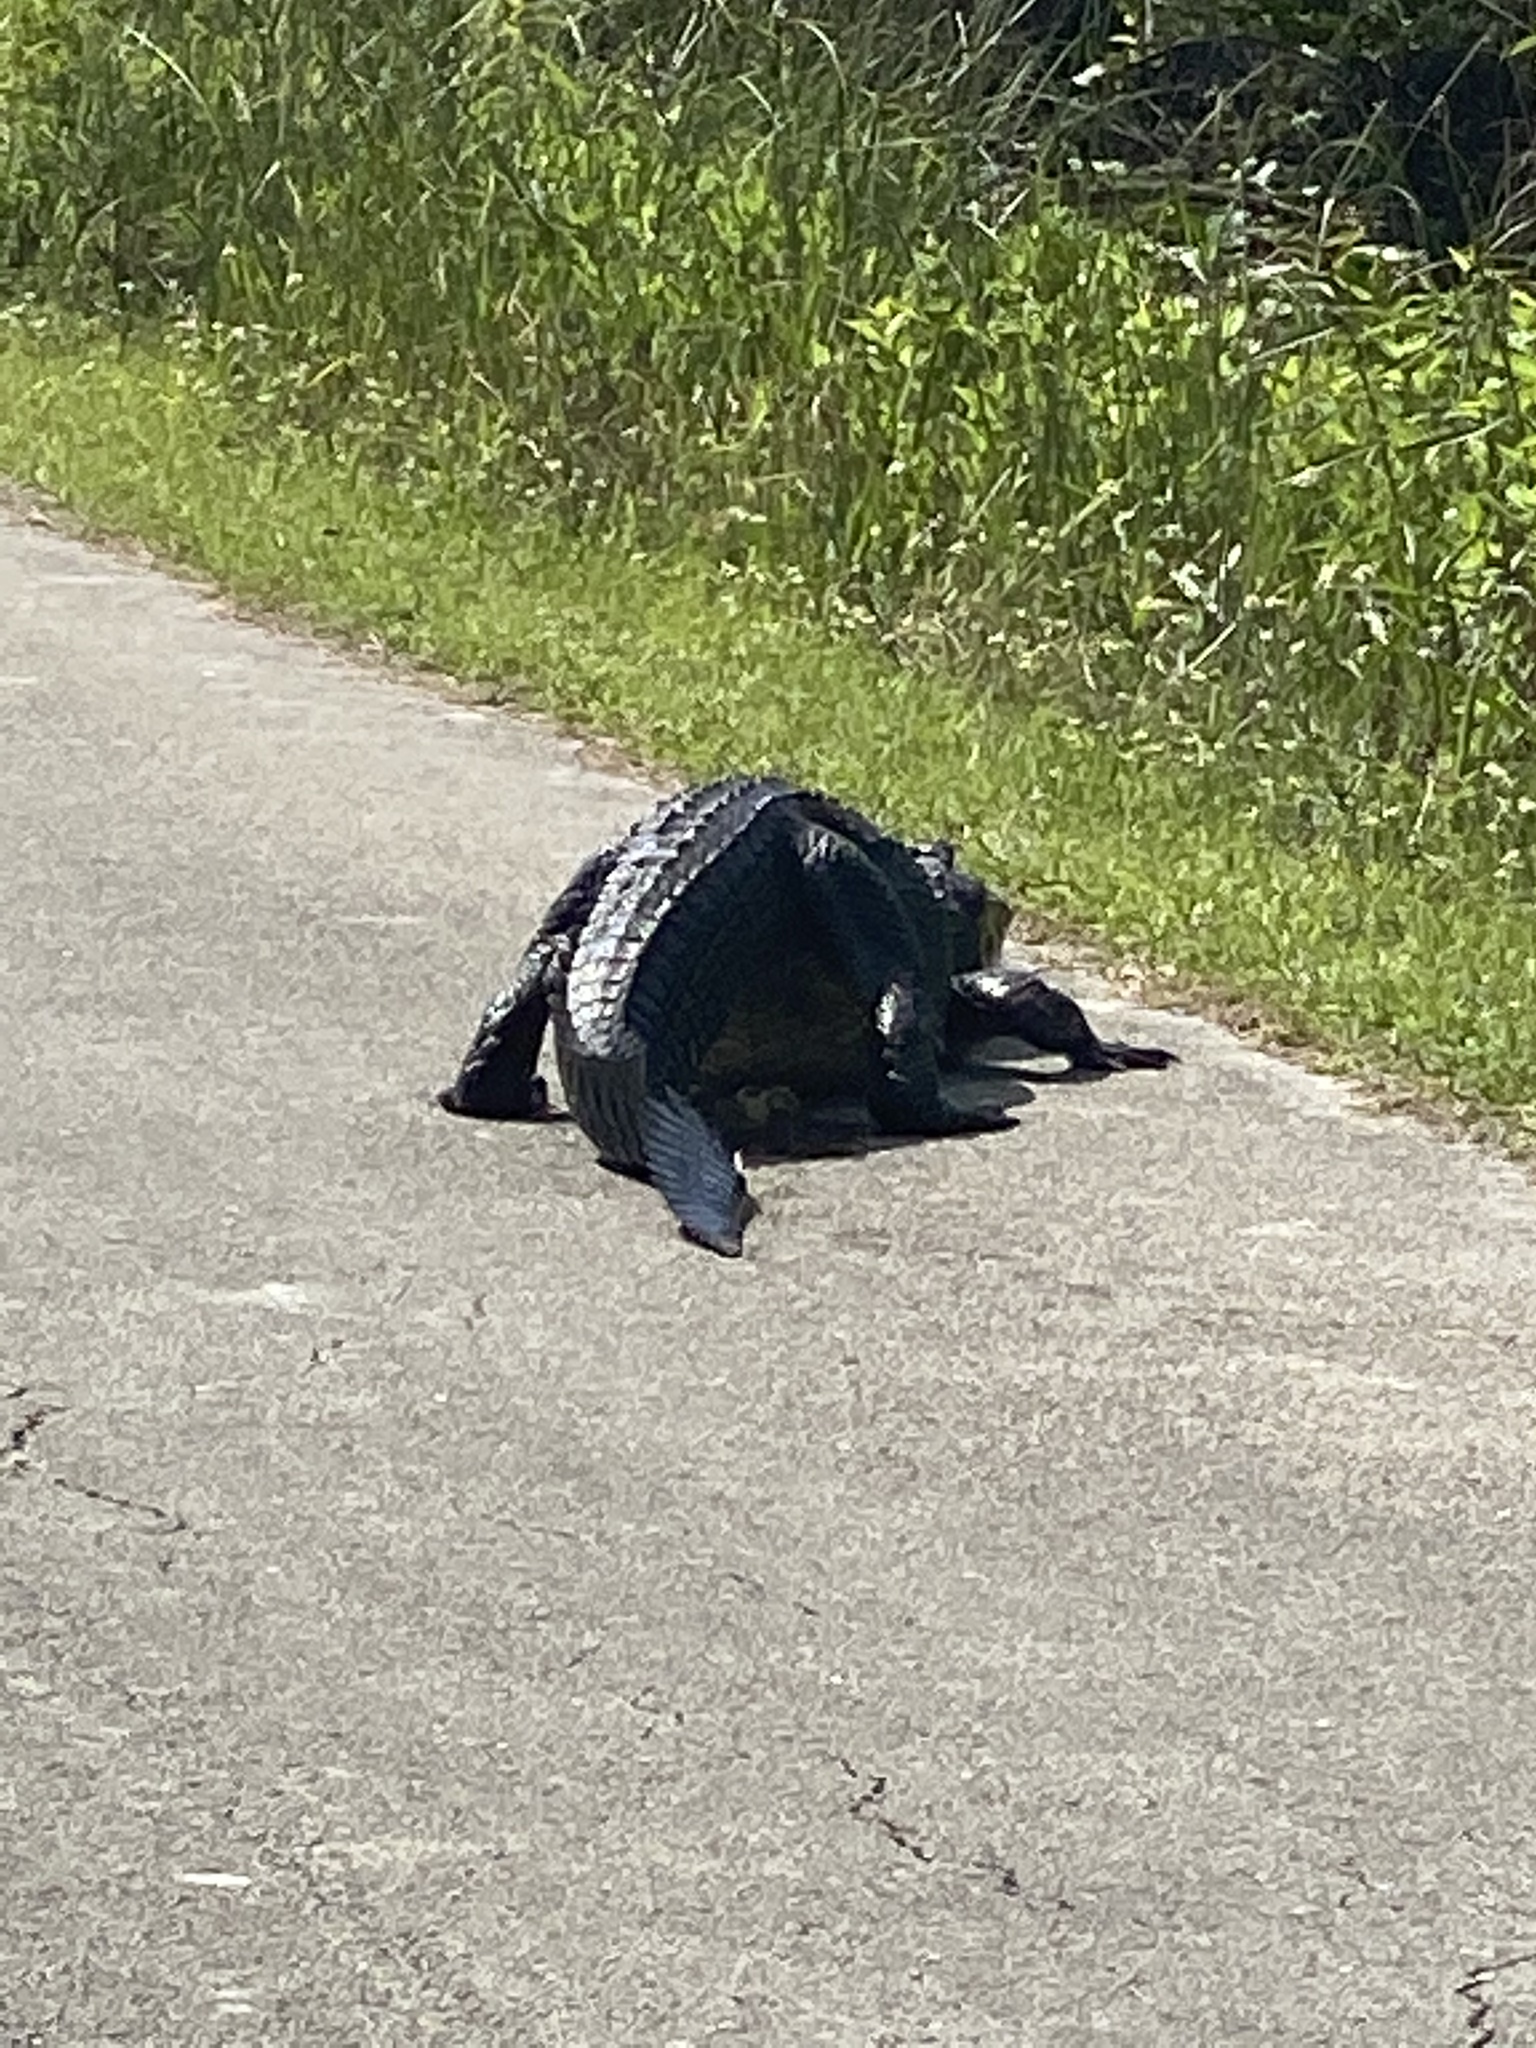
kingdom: Animalia
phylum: Chordata
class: Crocodylia
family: Alligatoridae
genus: Alligator
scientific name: Alligator mississippiensis
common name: American alligator
